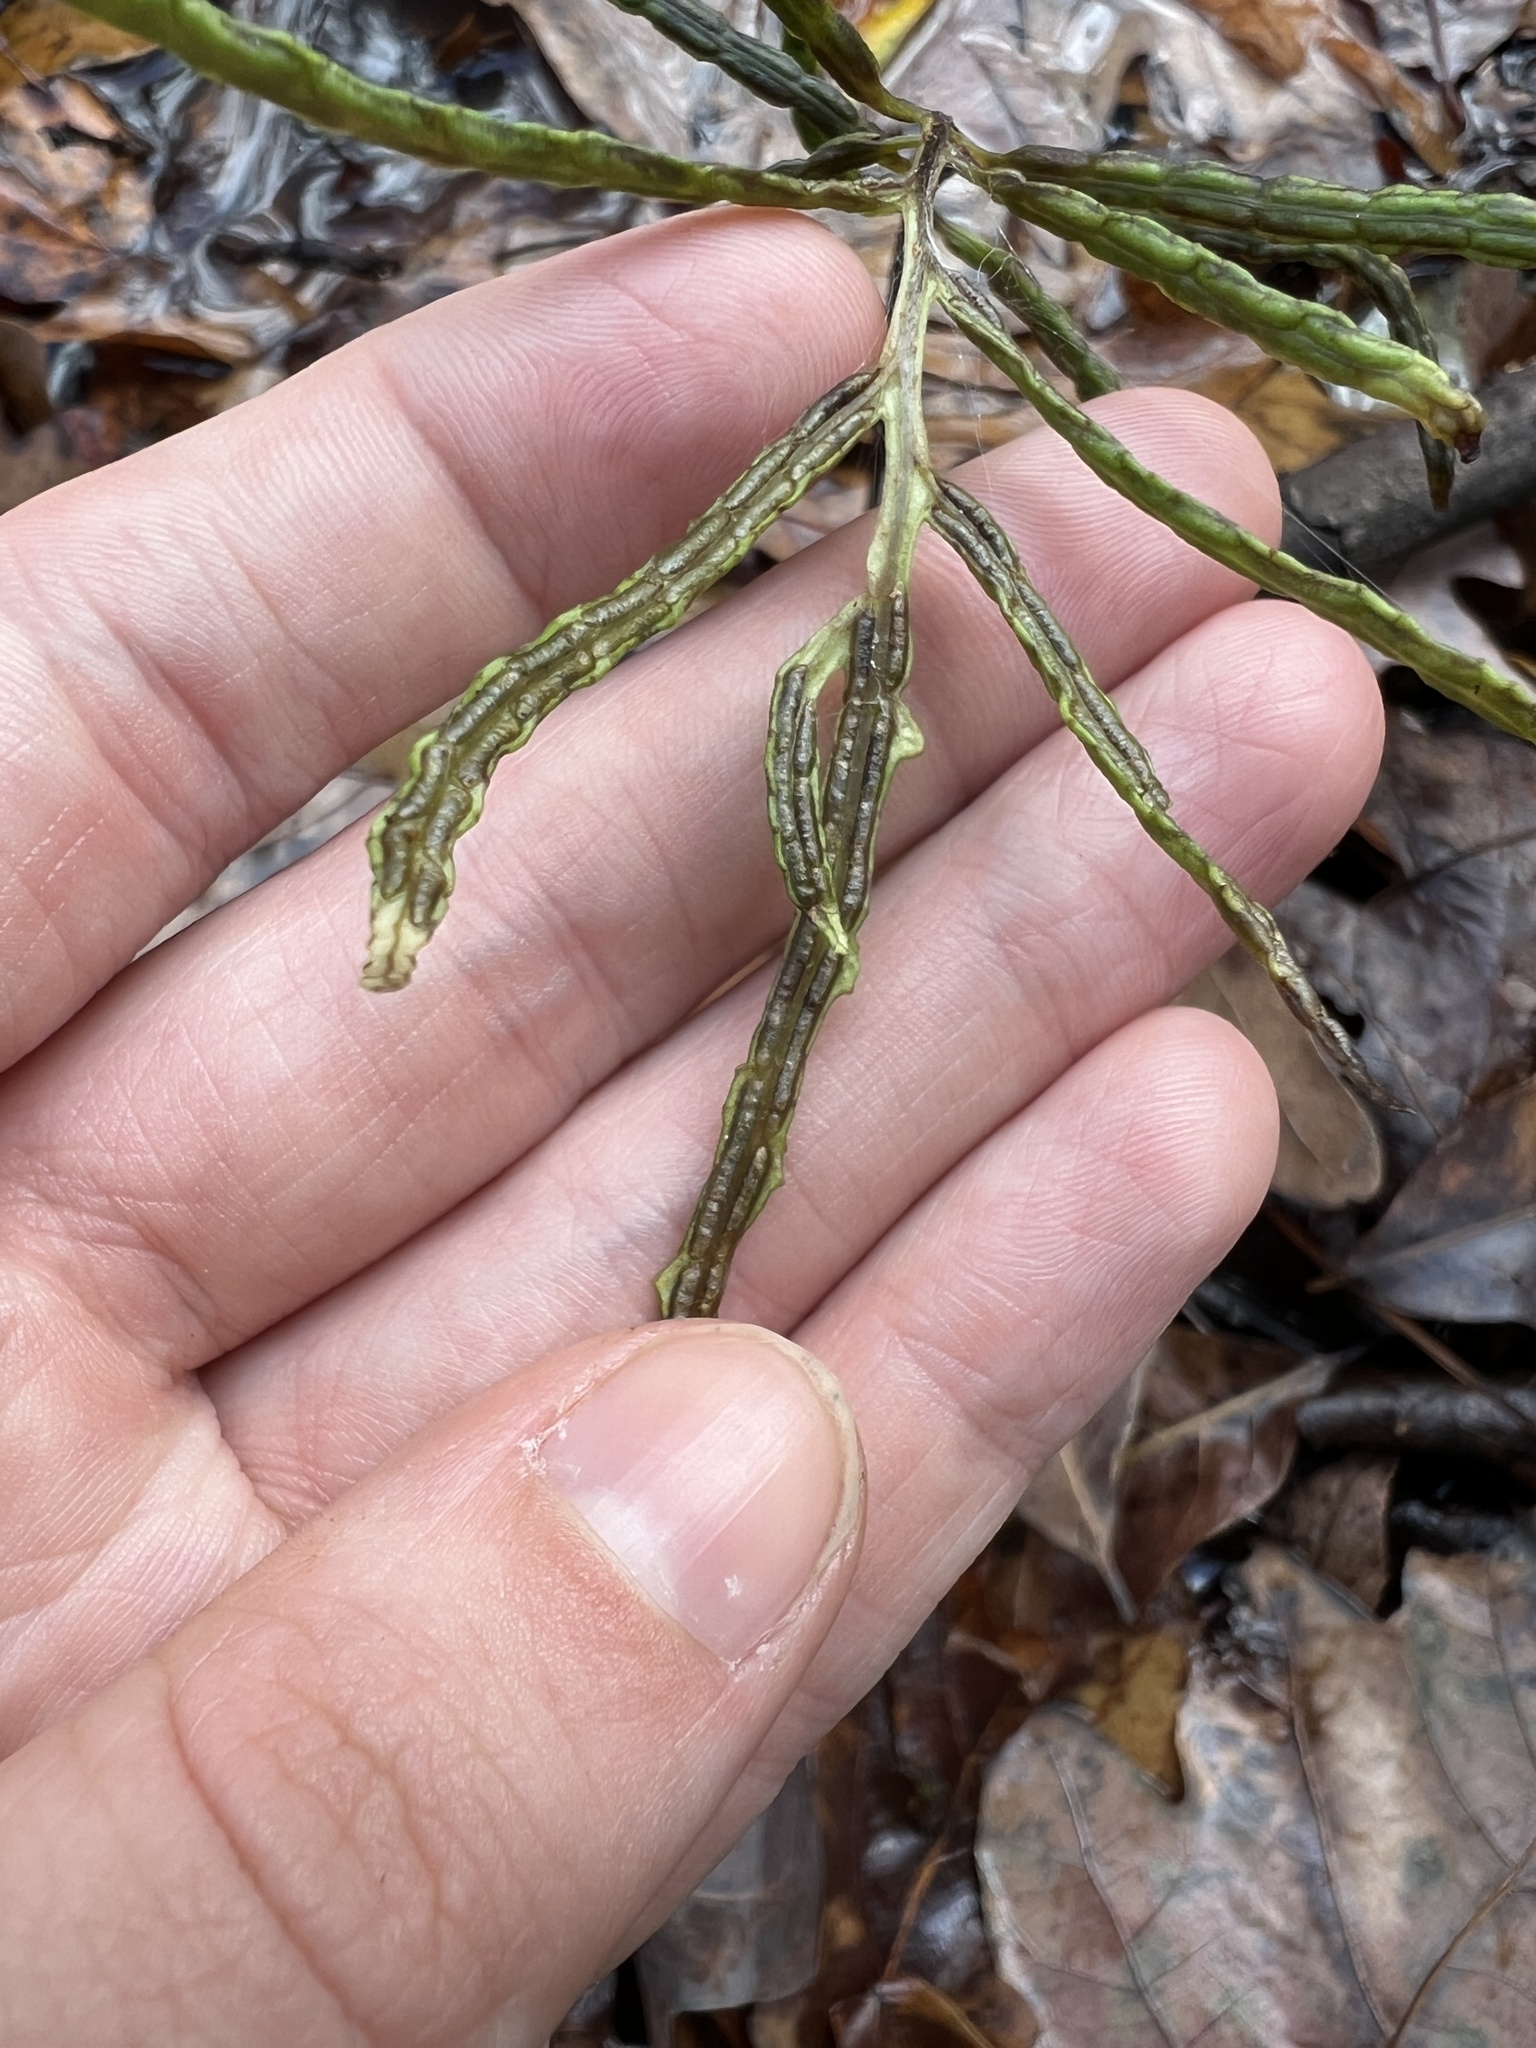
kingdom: Plantae
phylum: Tracheophyta
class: Polypodiopsida
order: Polypodiales
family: Blechnaceae
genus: Lorinseria
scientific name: Lorinseria areolata
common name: Dwarf chain fern
